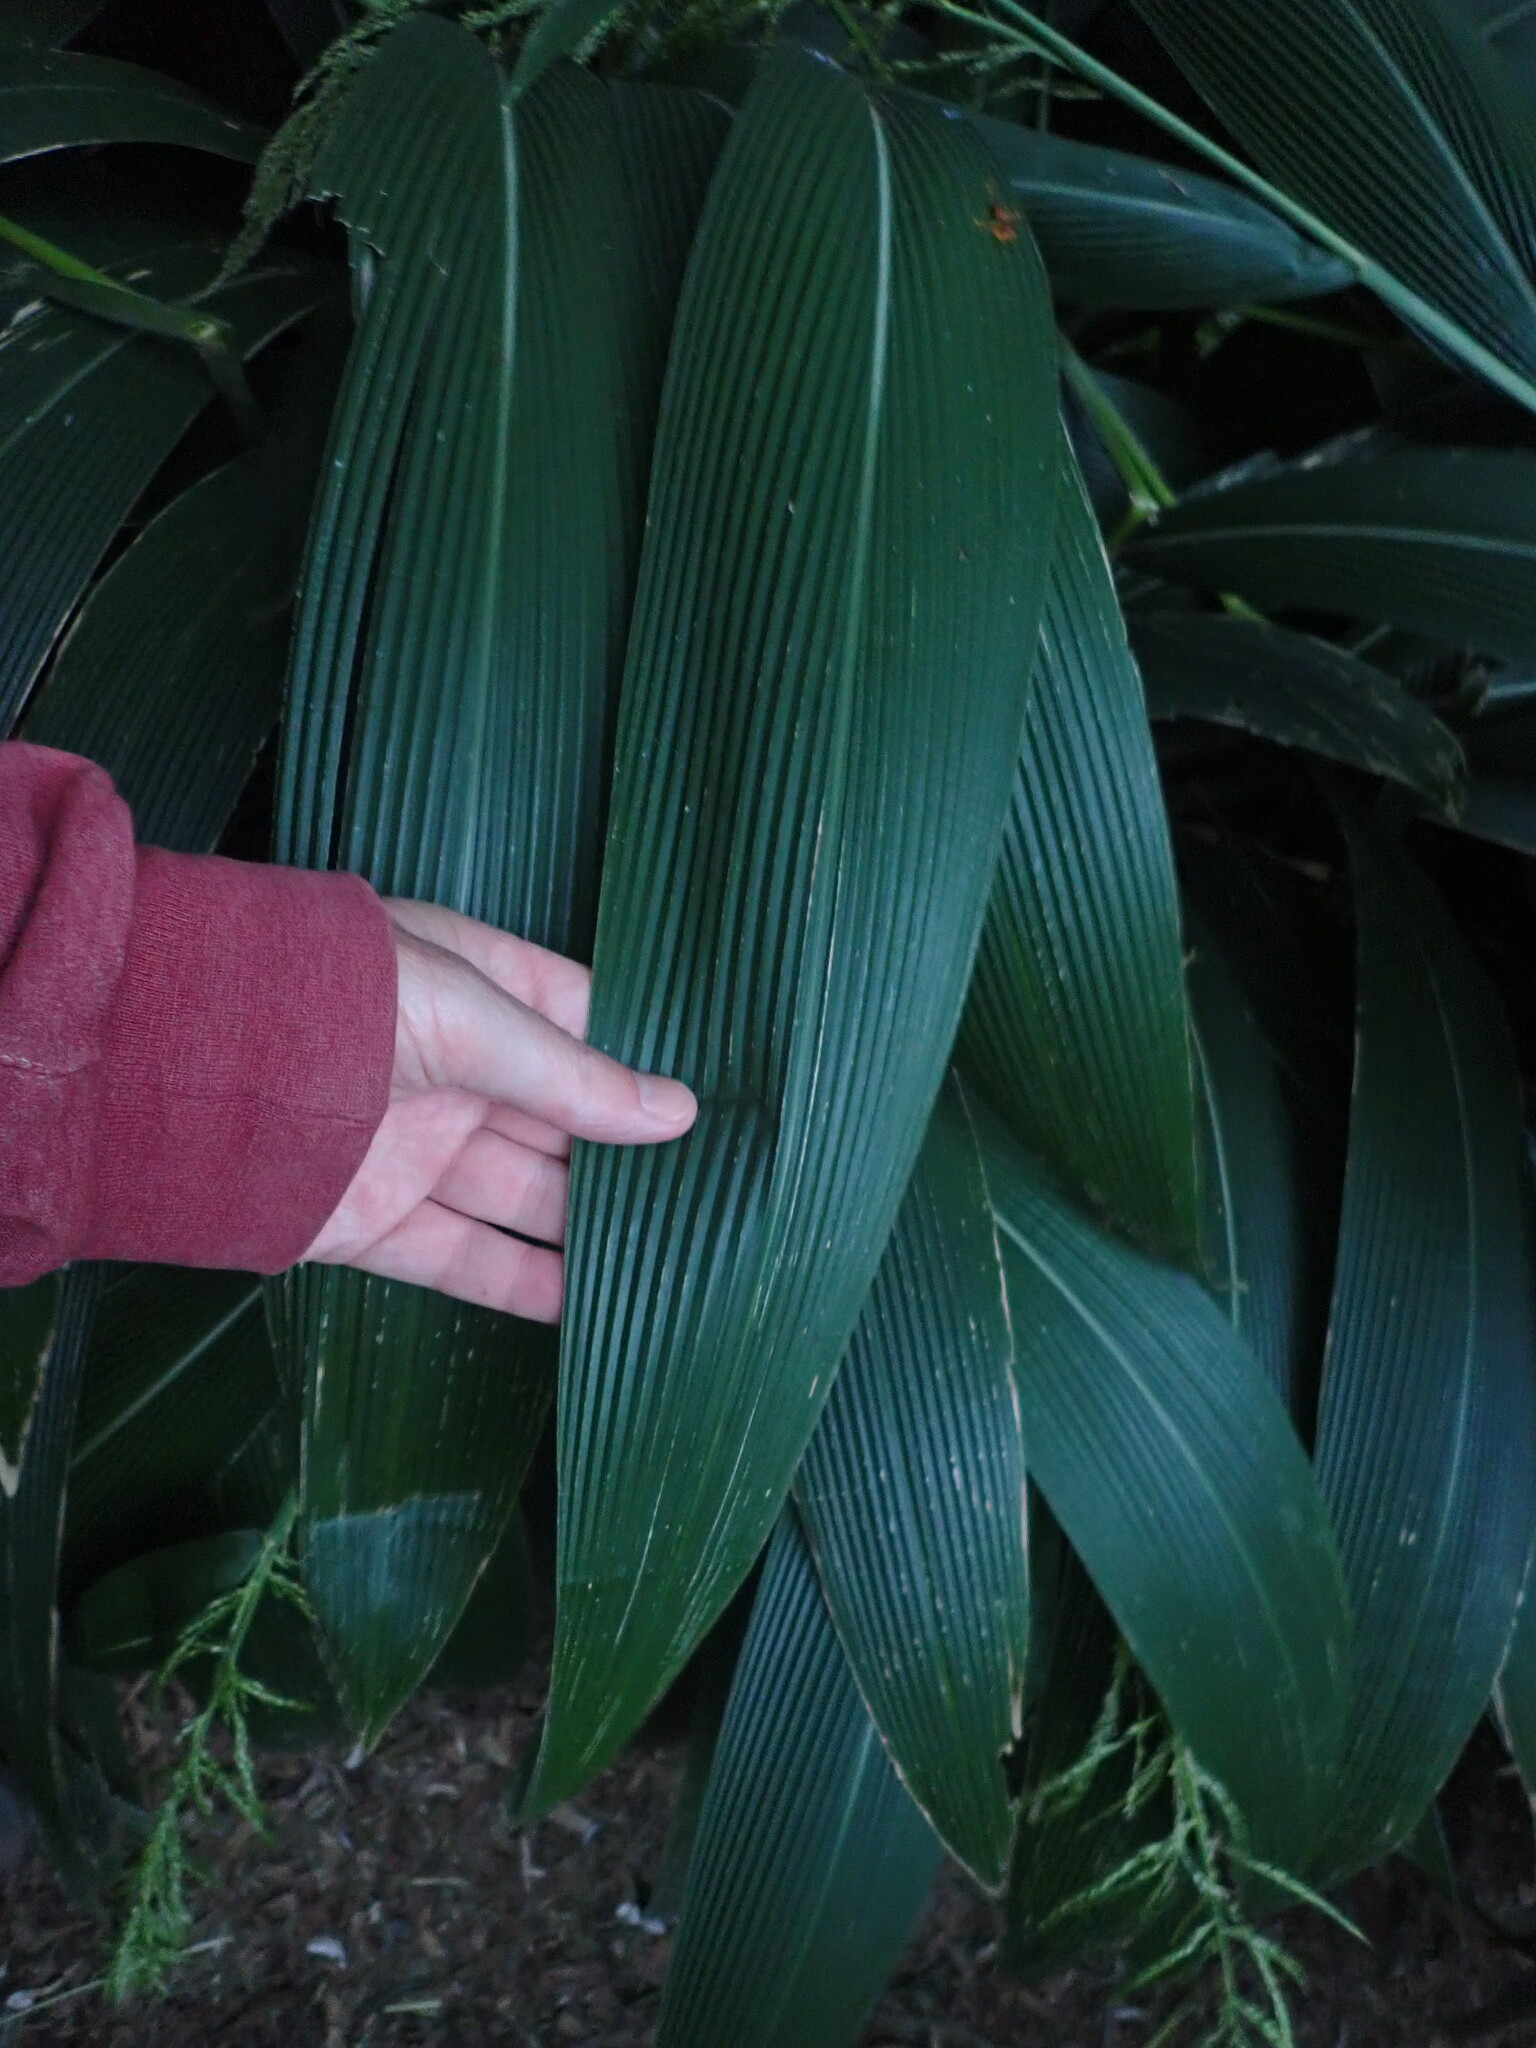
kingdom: Plantae
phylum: Tracheophyta
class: Liliopsida
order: Poales
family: Poaceae
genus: Setaria
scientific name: Setaria palmifolia
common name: Broadleaved bristlegrass
